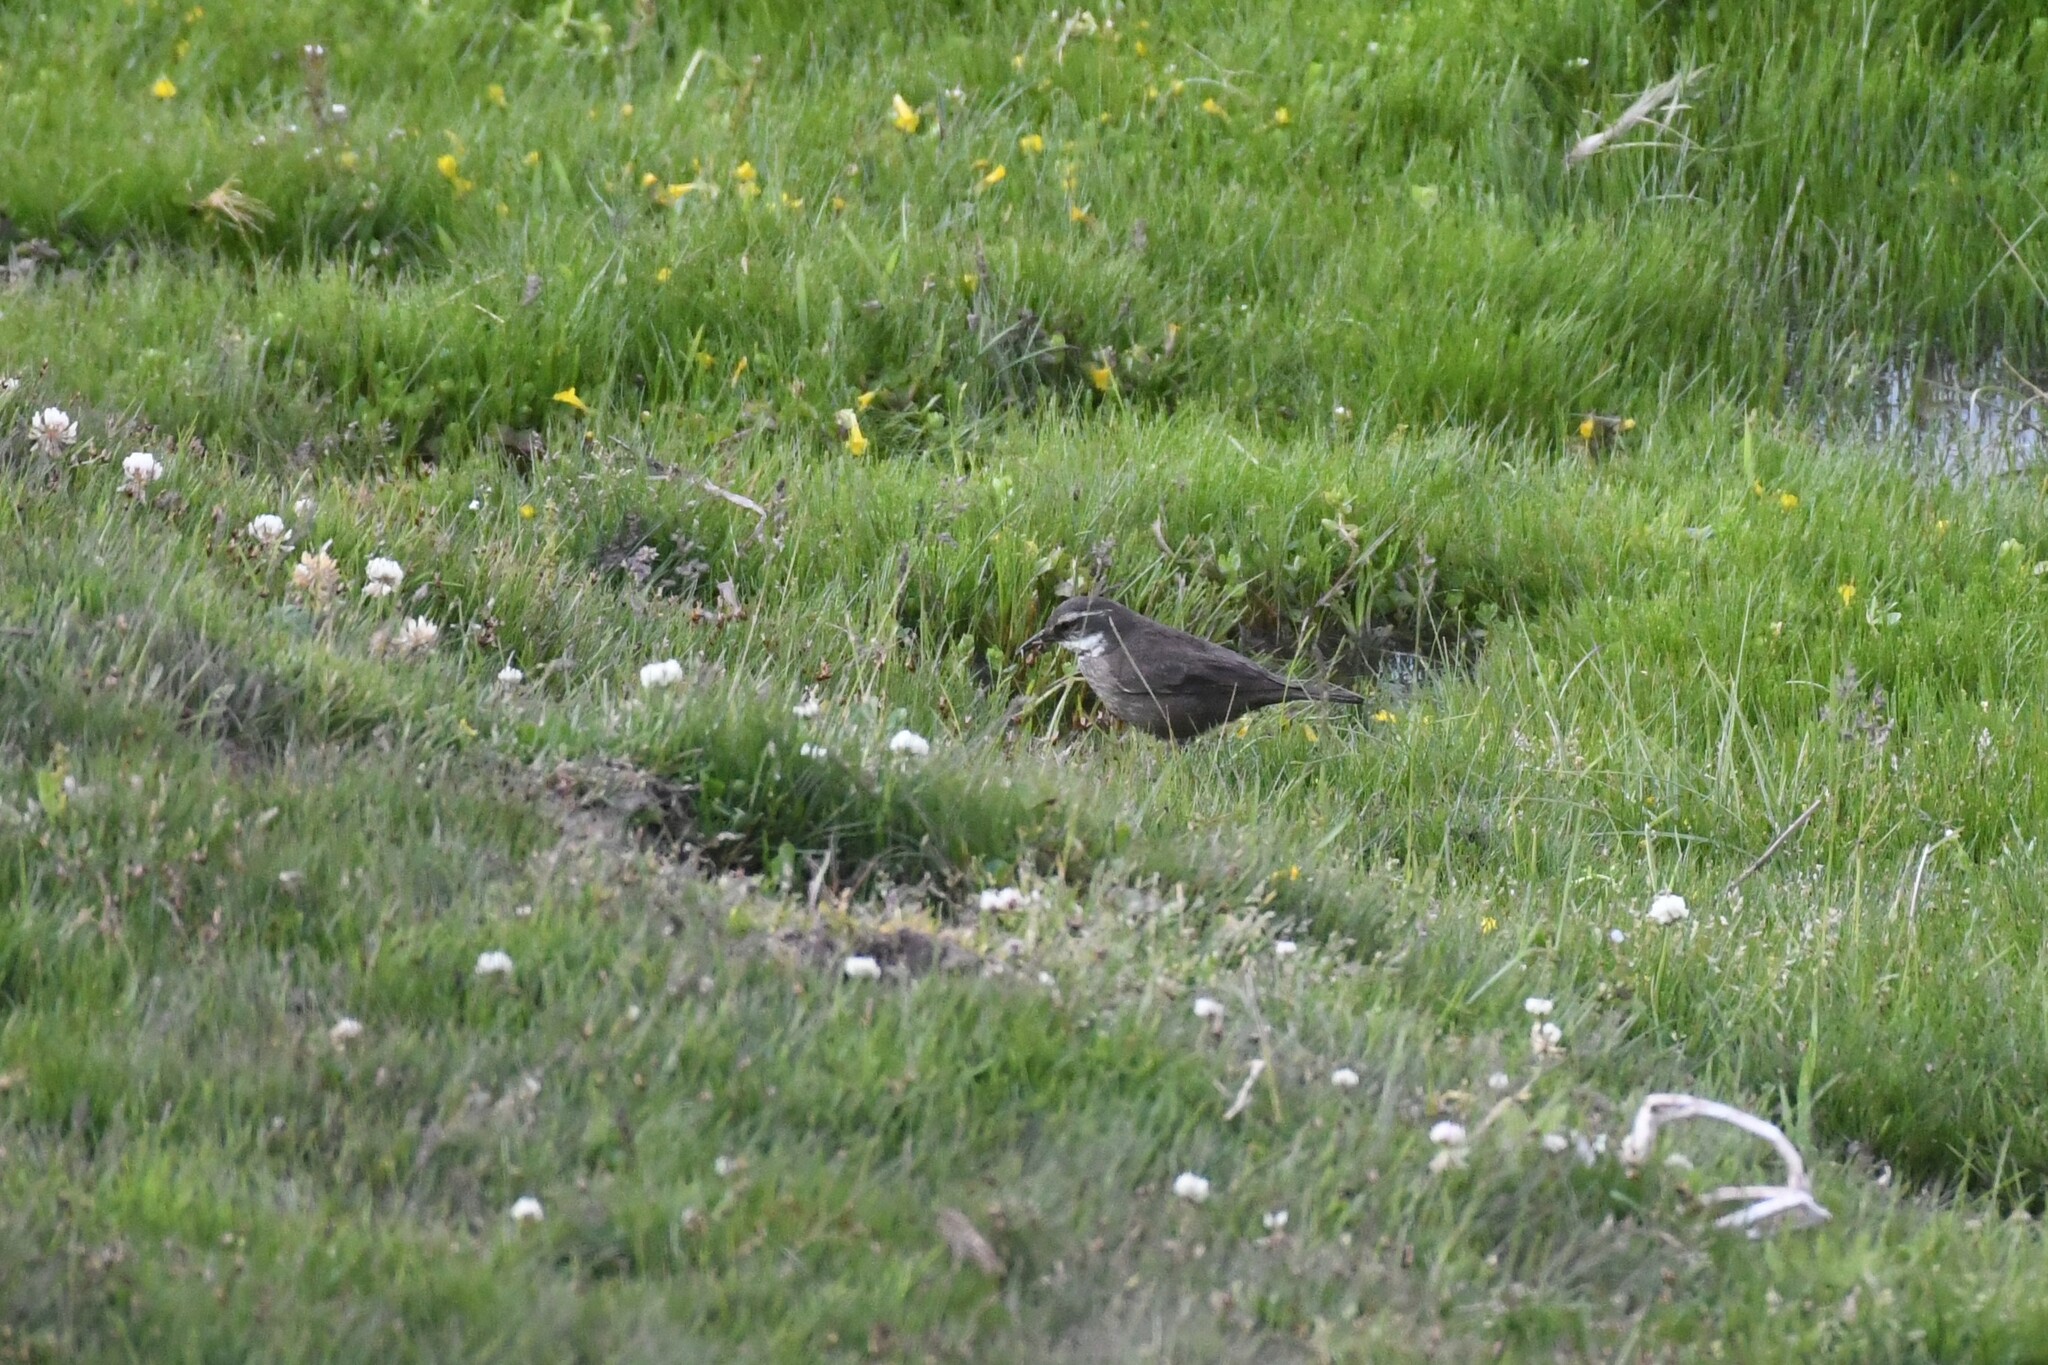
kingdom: Animalia
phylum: Chordata
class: Aves
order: Passeriformes
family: Furnariidae
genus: Cinclodes
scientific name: Cinclodes oustaleti
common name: Grey-flanked cinclodes
